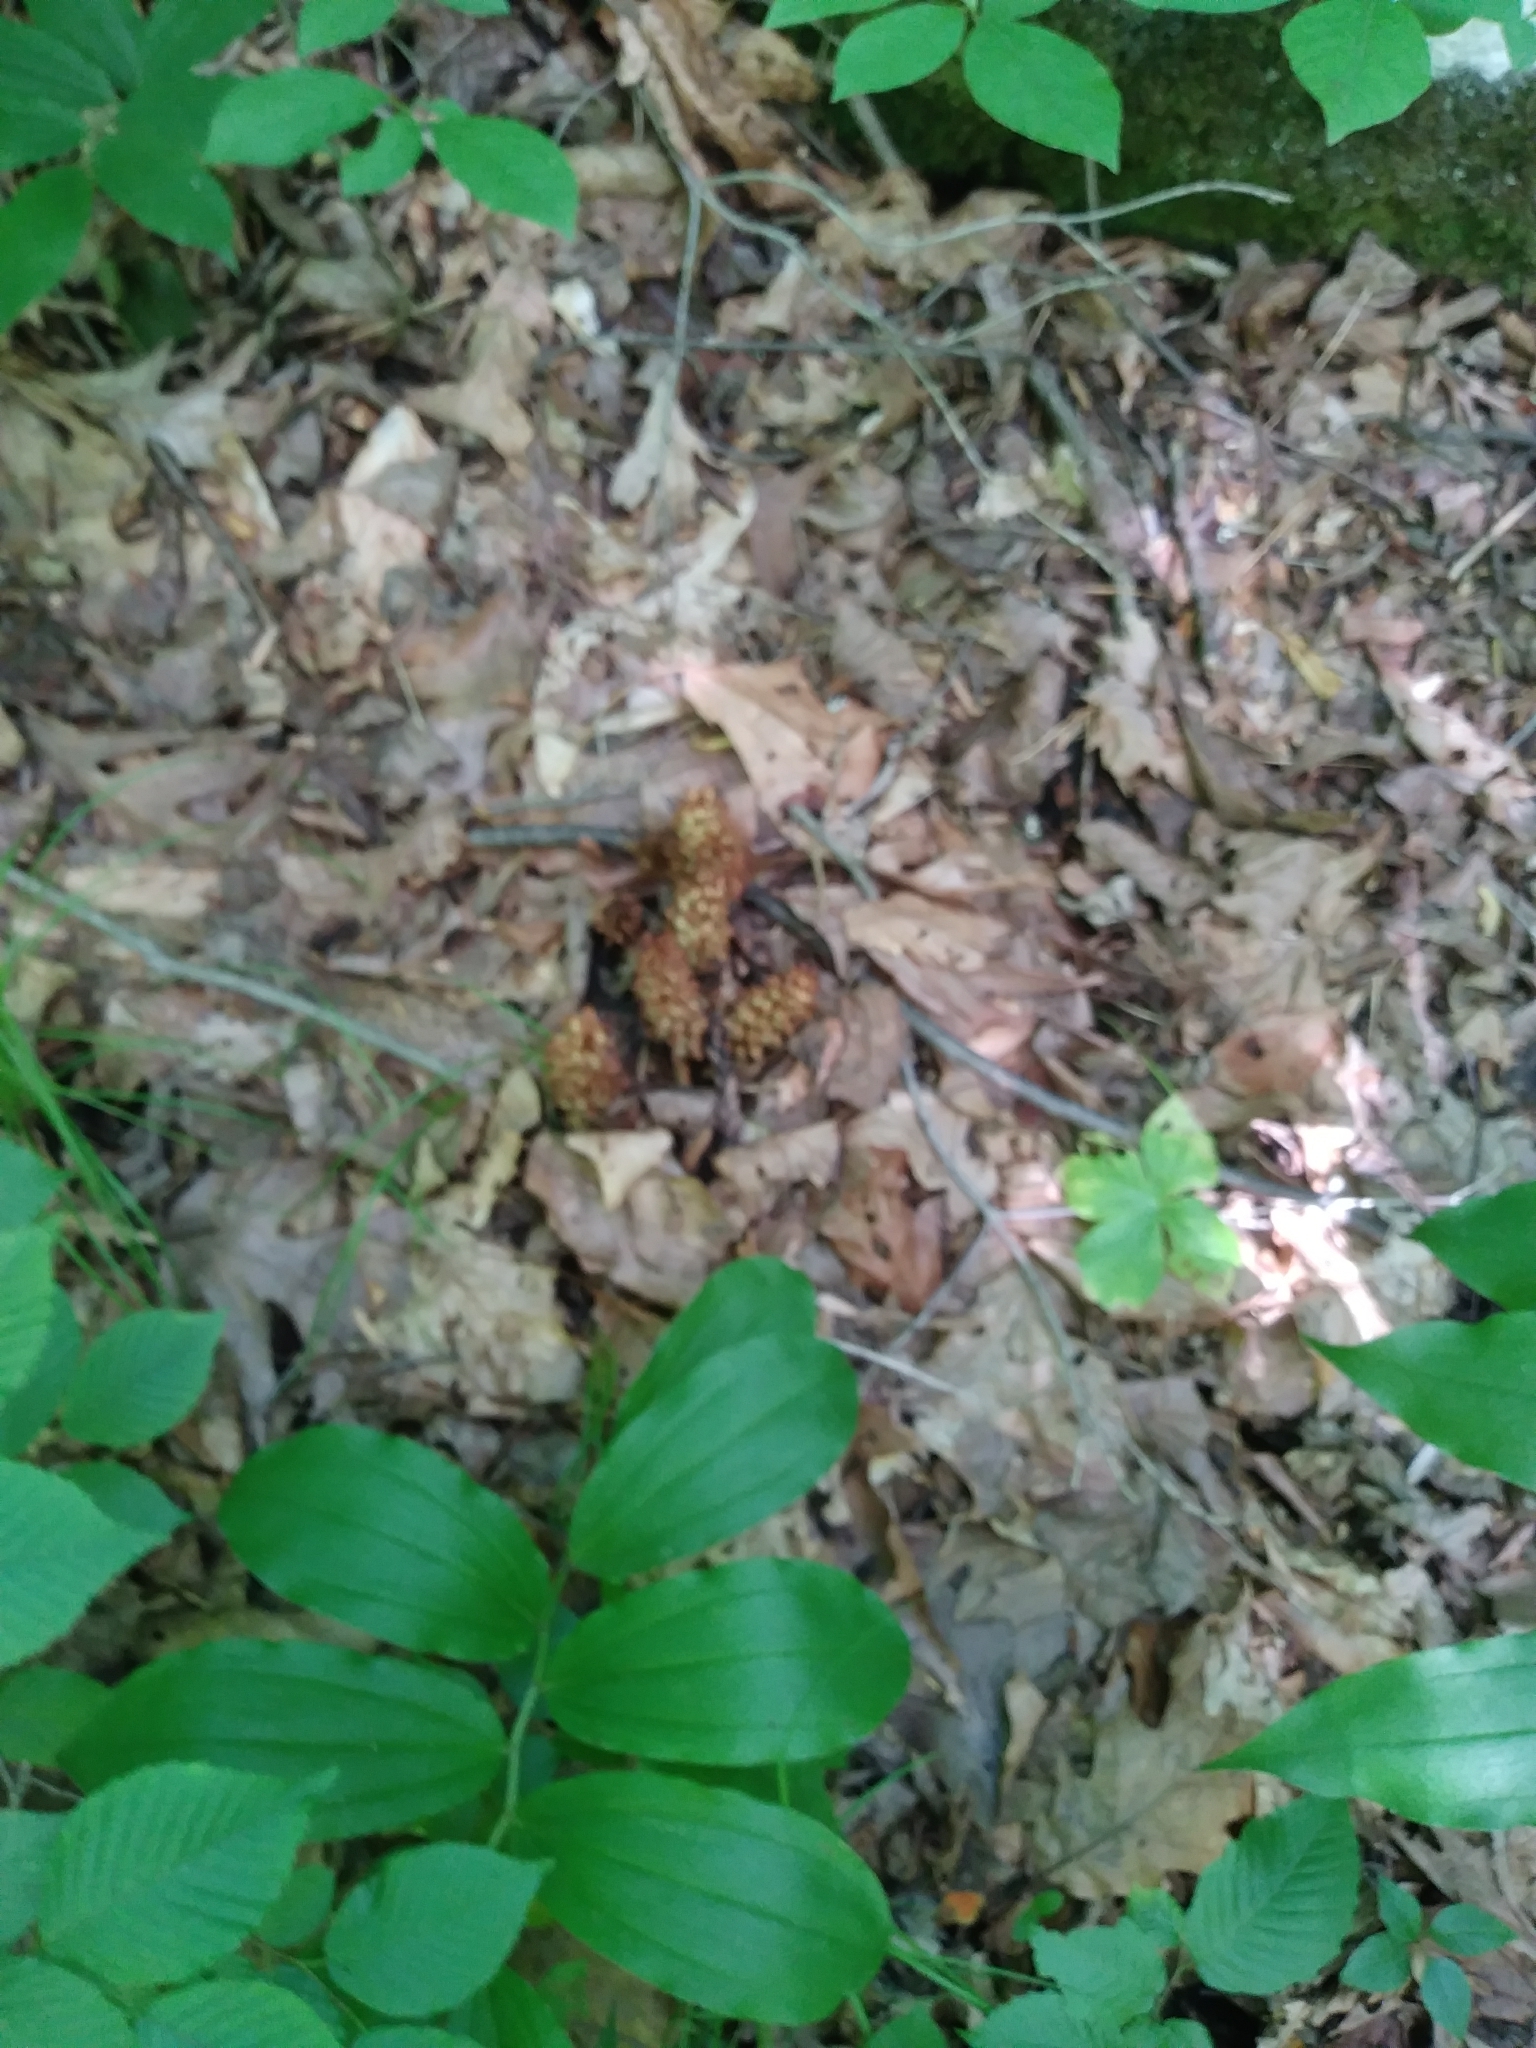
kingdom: Plantae
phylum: Tracheophyta
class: Magnoliopsida
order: Lamiales
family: Orobanchaceae
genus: Conopholis
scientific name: Conopholis americana
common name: American cancer-root
